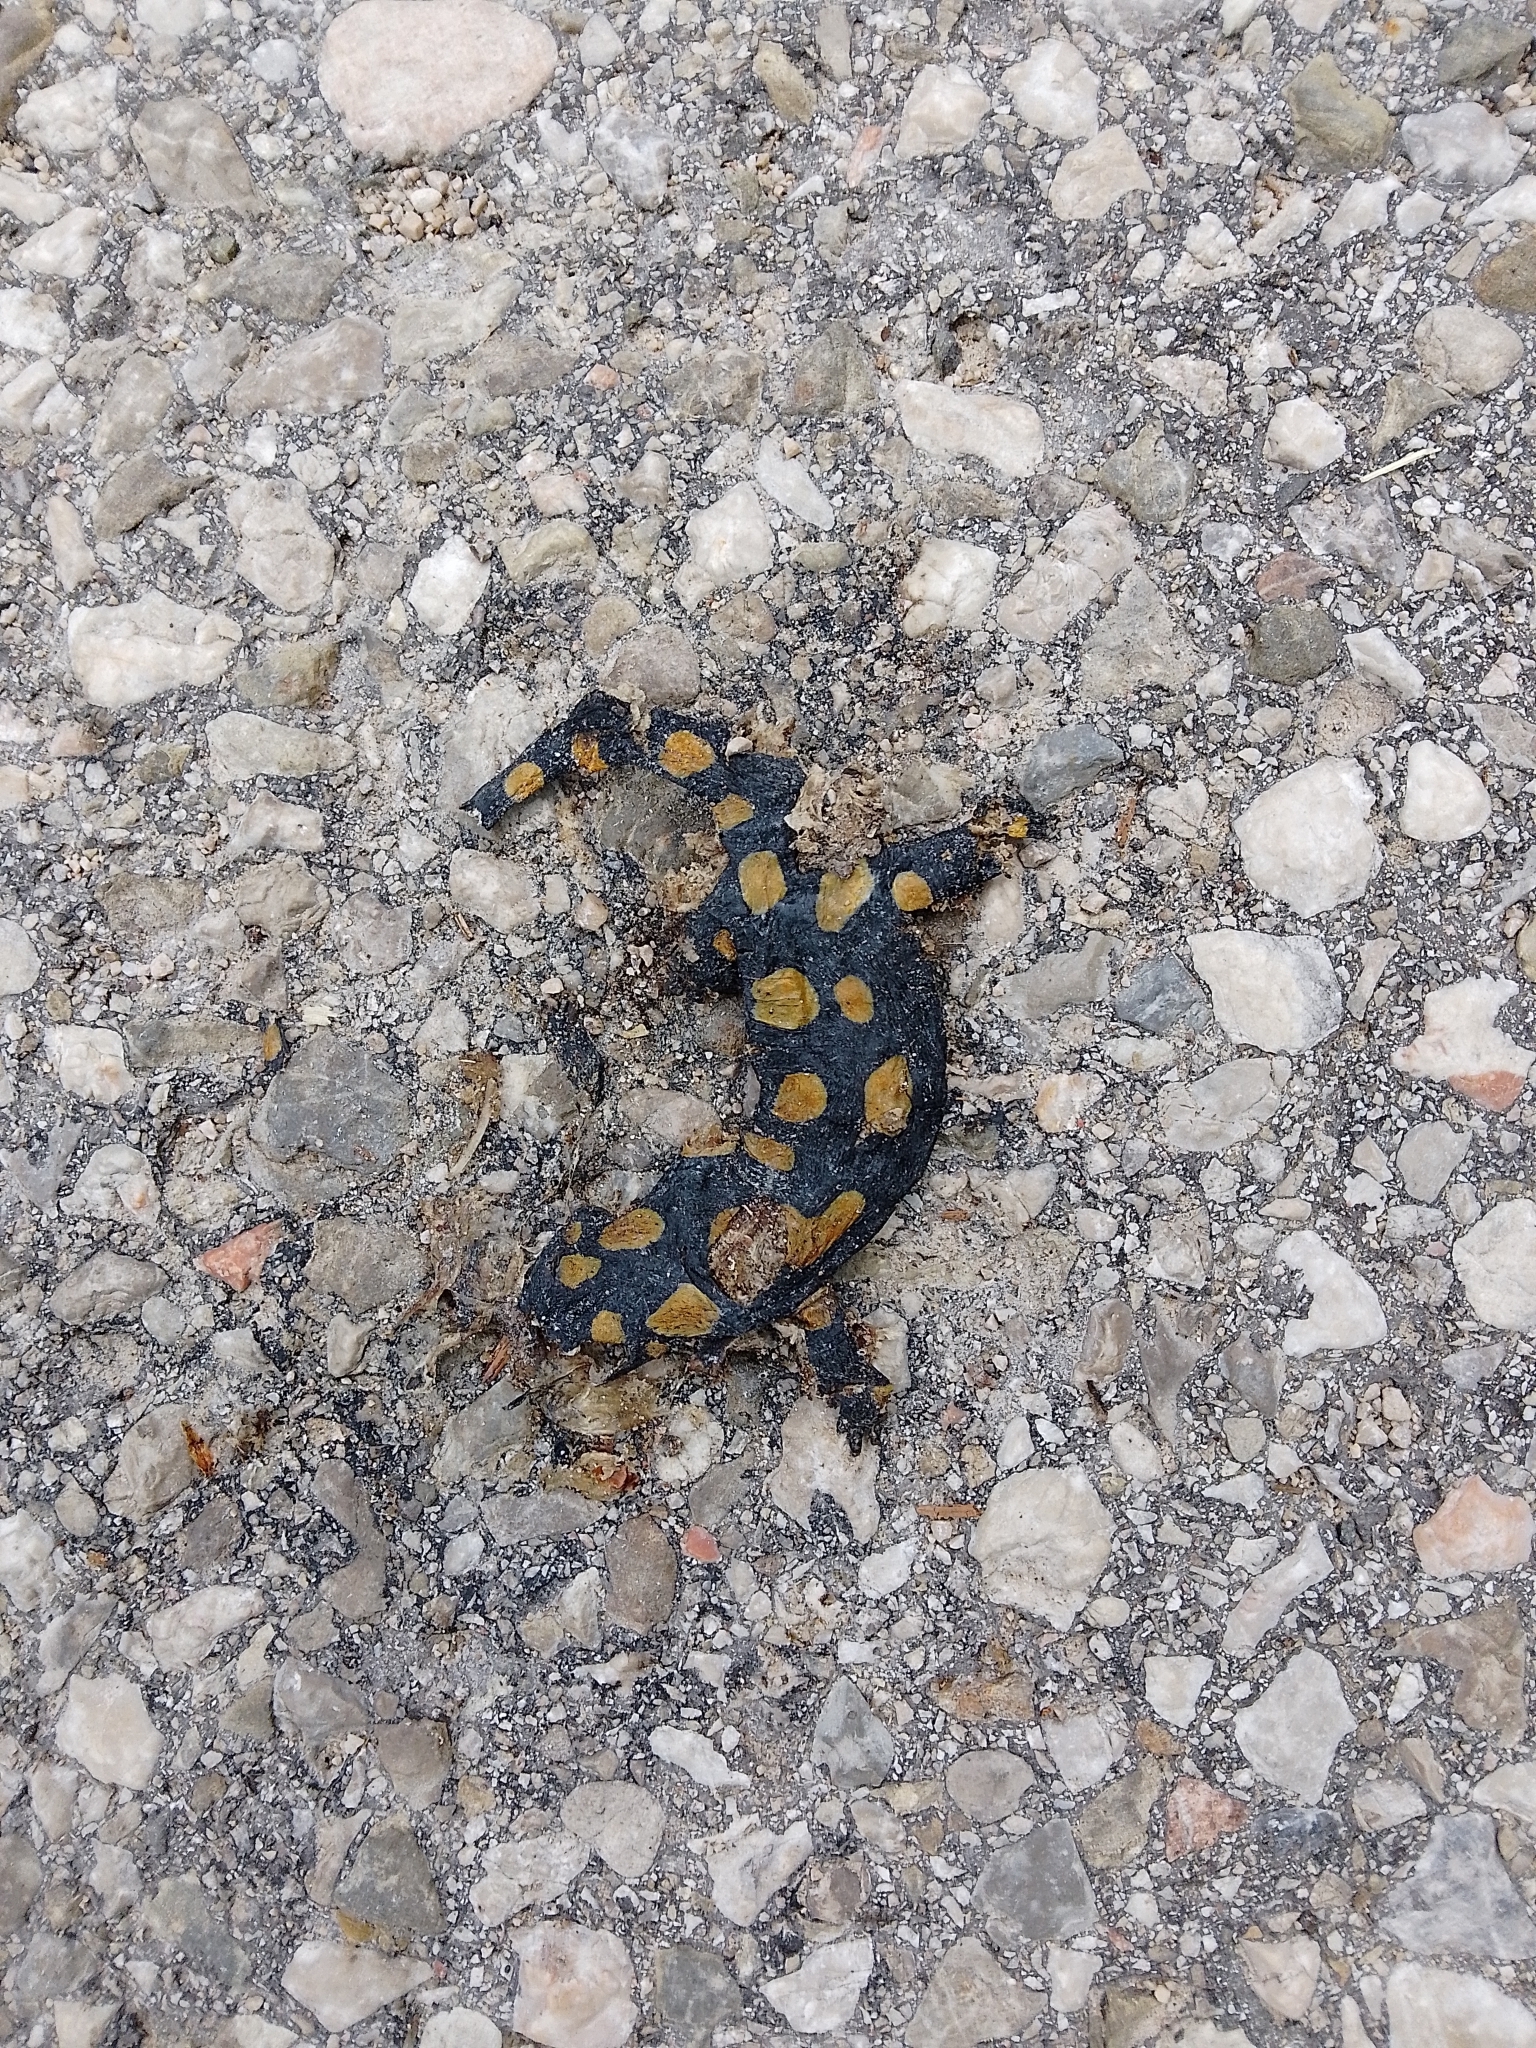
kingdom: Animalia
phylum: Chordata
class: Amphibia
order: Caudata
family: Salamandridae
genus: Salamandra
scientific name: Salamandra salamandra
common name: Fire salamander
